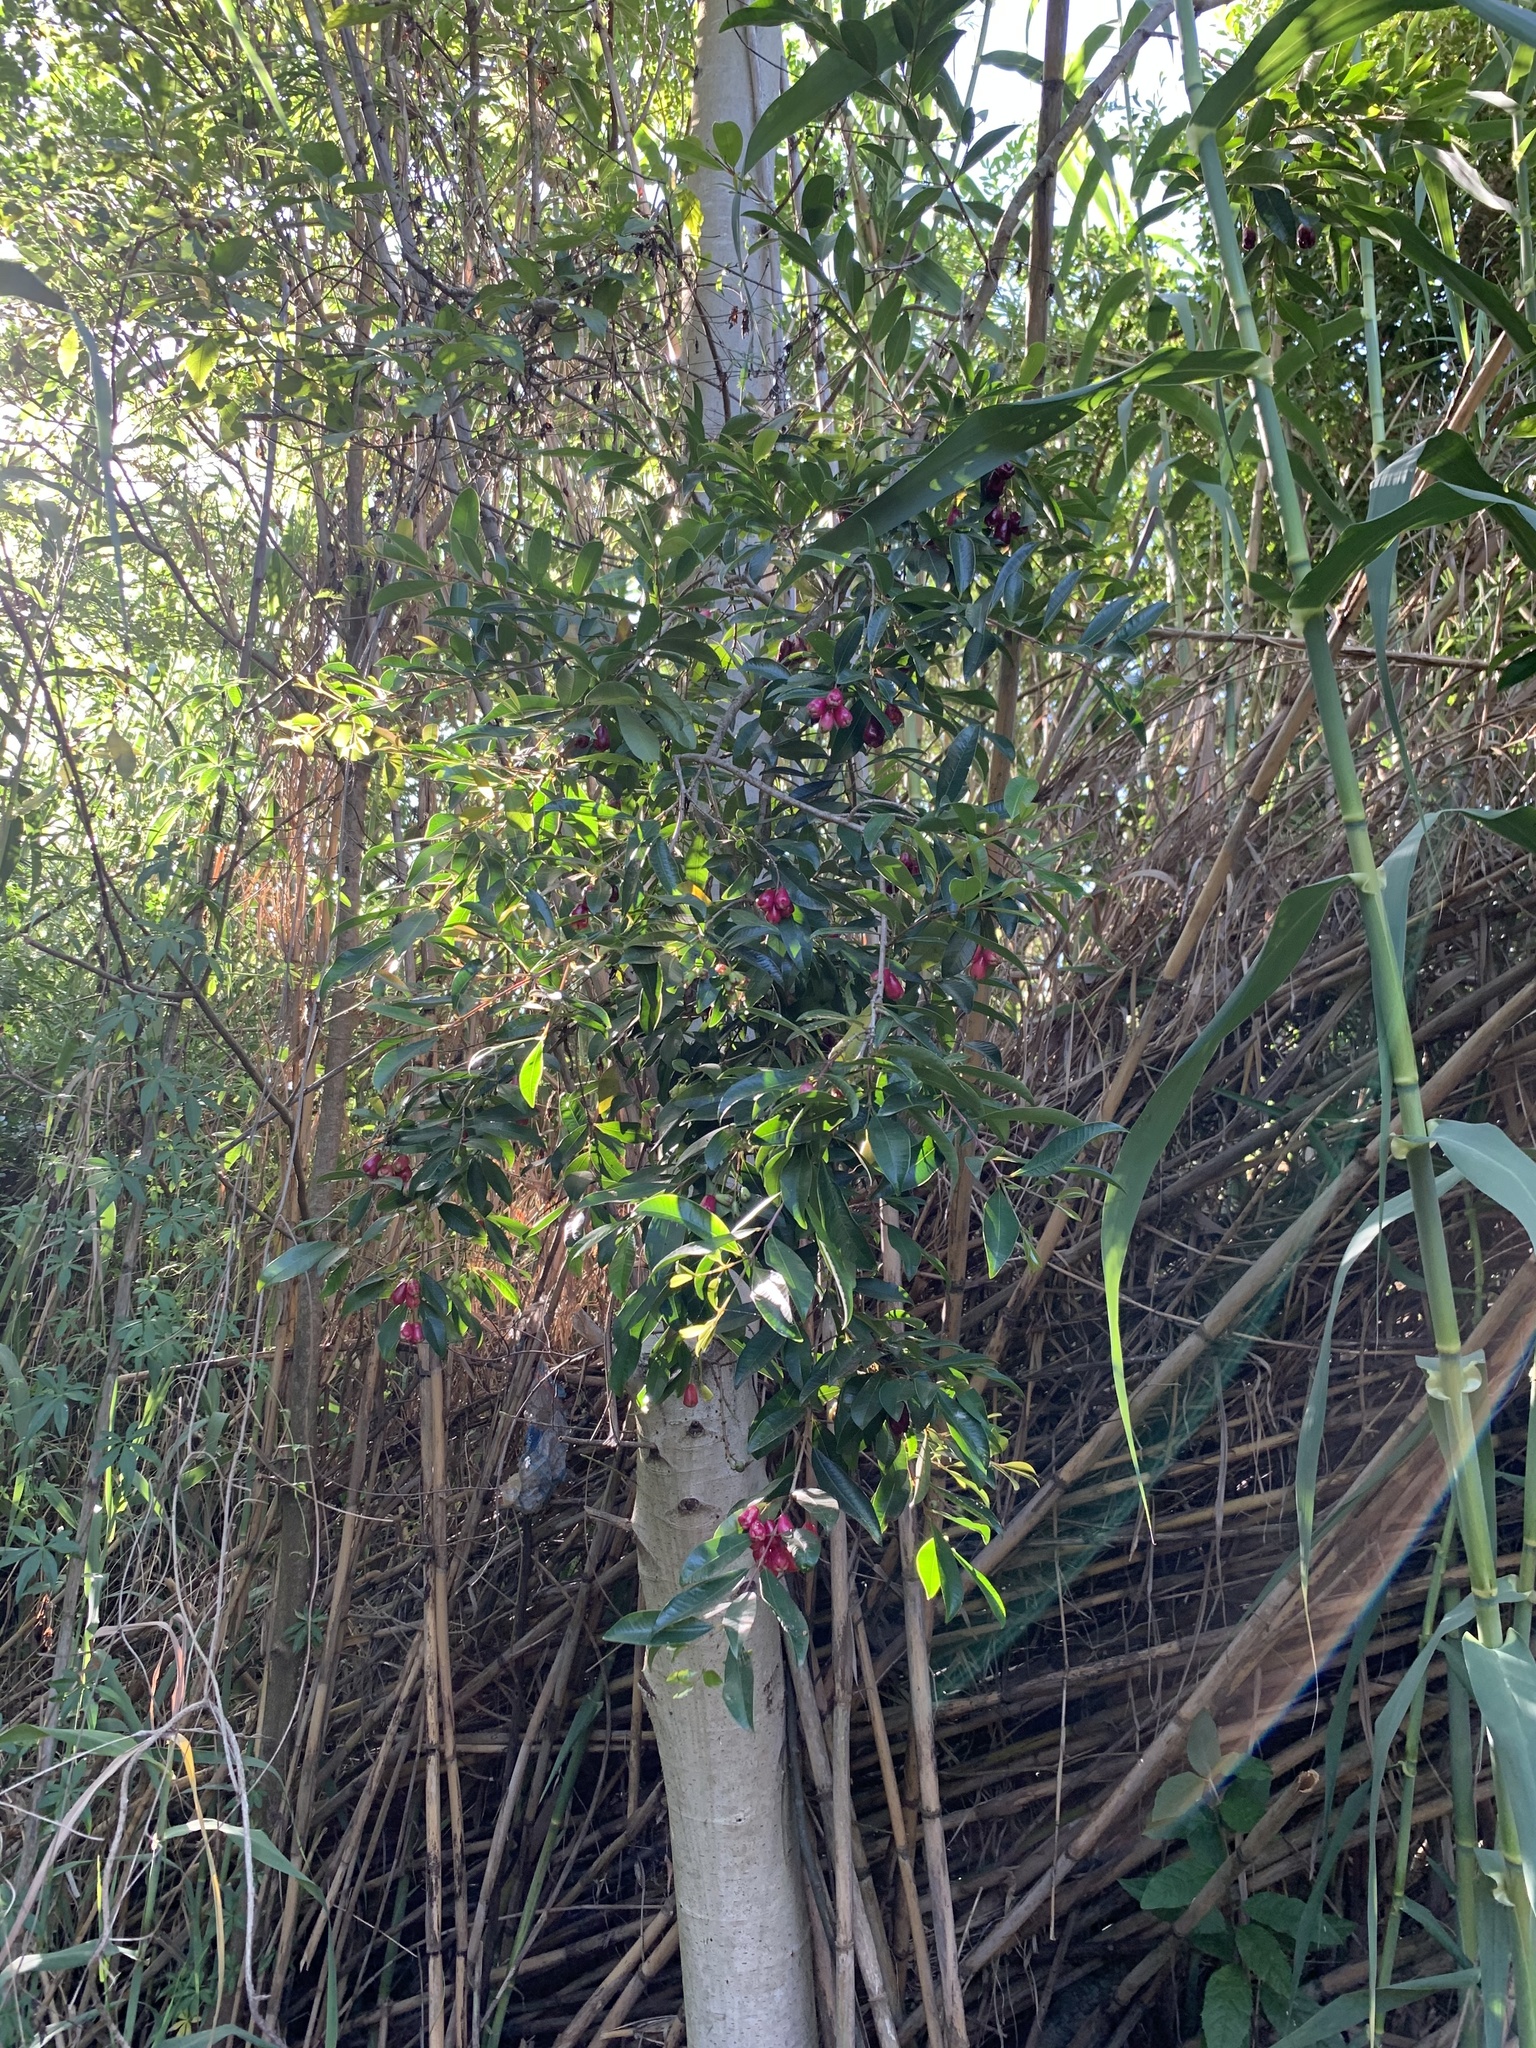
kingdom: Plantae
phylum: Tracheophyta
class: Magnoliopsida
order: Myrtales
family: Myrtaceae
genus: Syzygium
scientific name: Syzygium australe
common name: Australian brush-cherry
